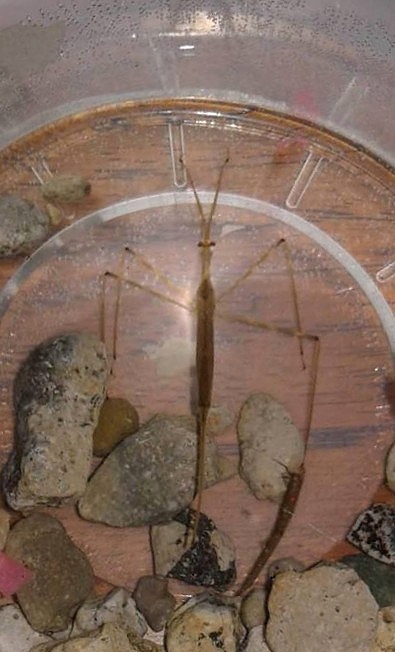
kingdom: Animalia
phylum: Arthropoda
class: Insecta
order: Hemiptera
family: Nepidae
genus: Ranatra
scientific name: Ranatra
